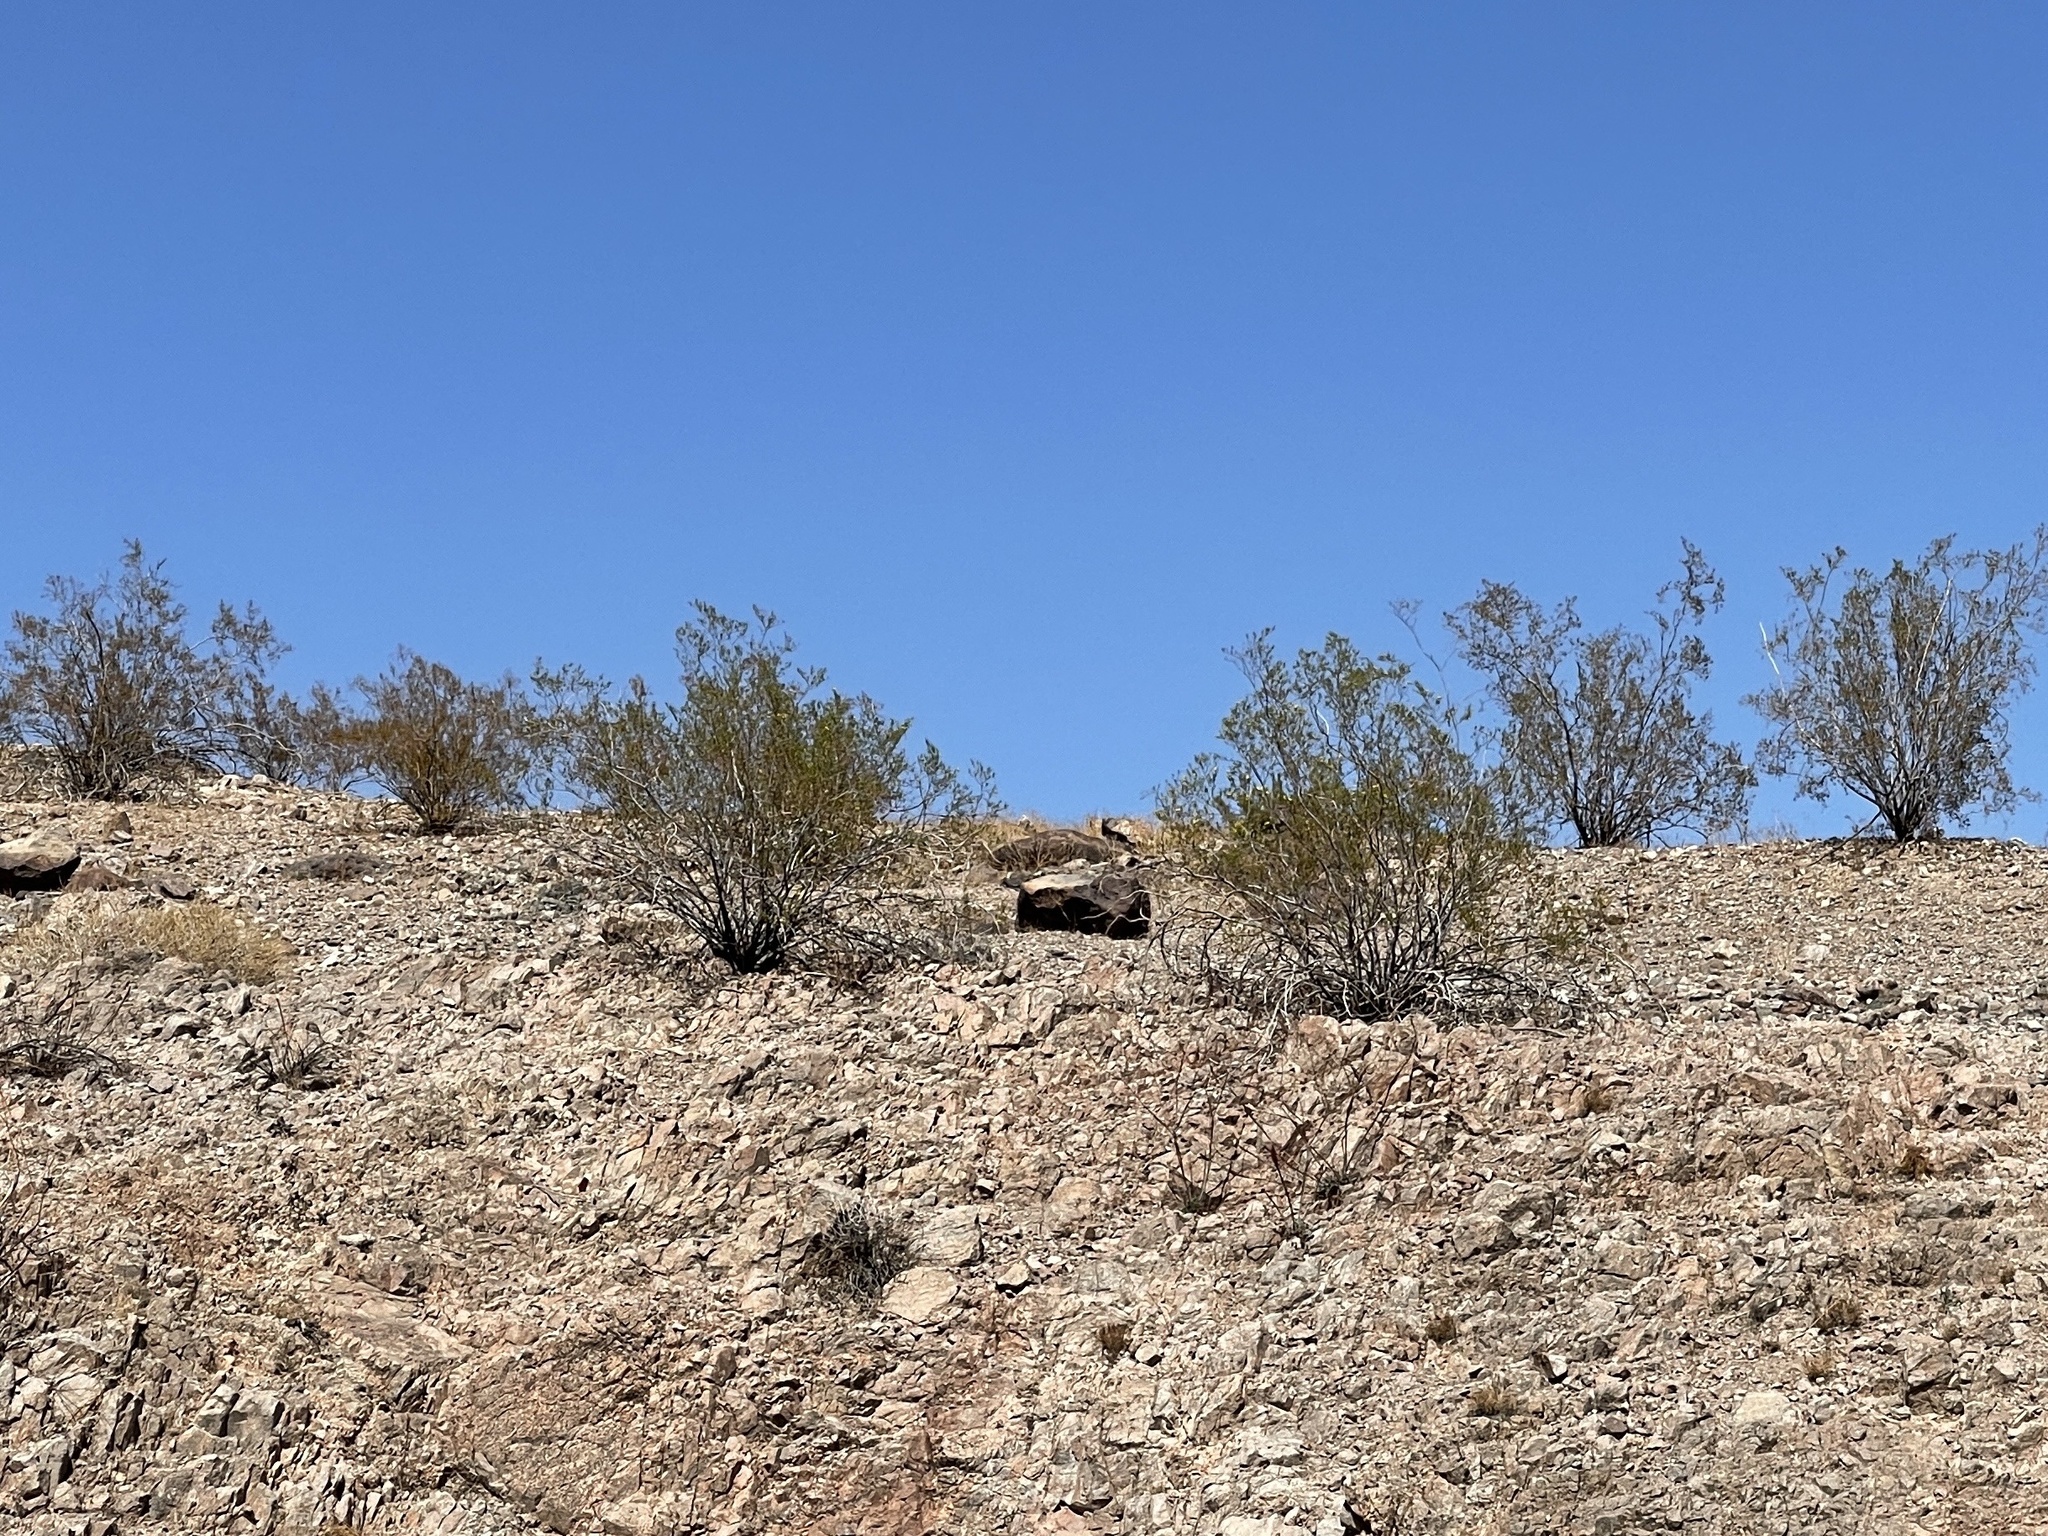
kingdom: Plantae
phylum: Tracheophyta
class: Magnoliopsida
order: Zygophyllales
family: Zygophyllaceae
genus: Larrea
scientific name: Larrea tridentata
